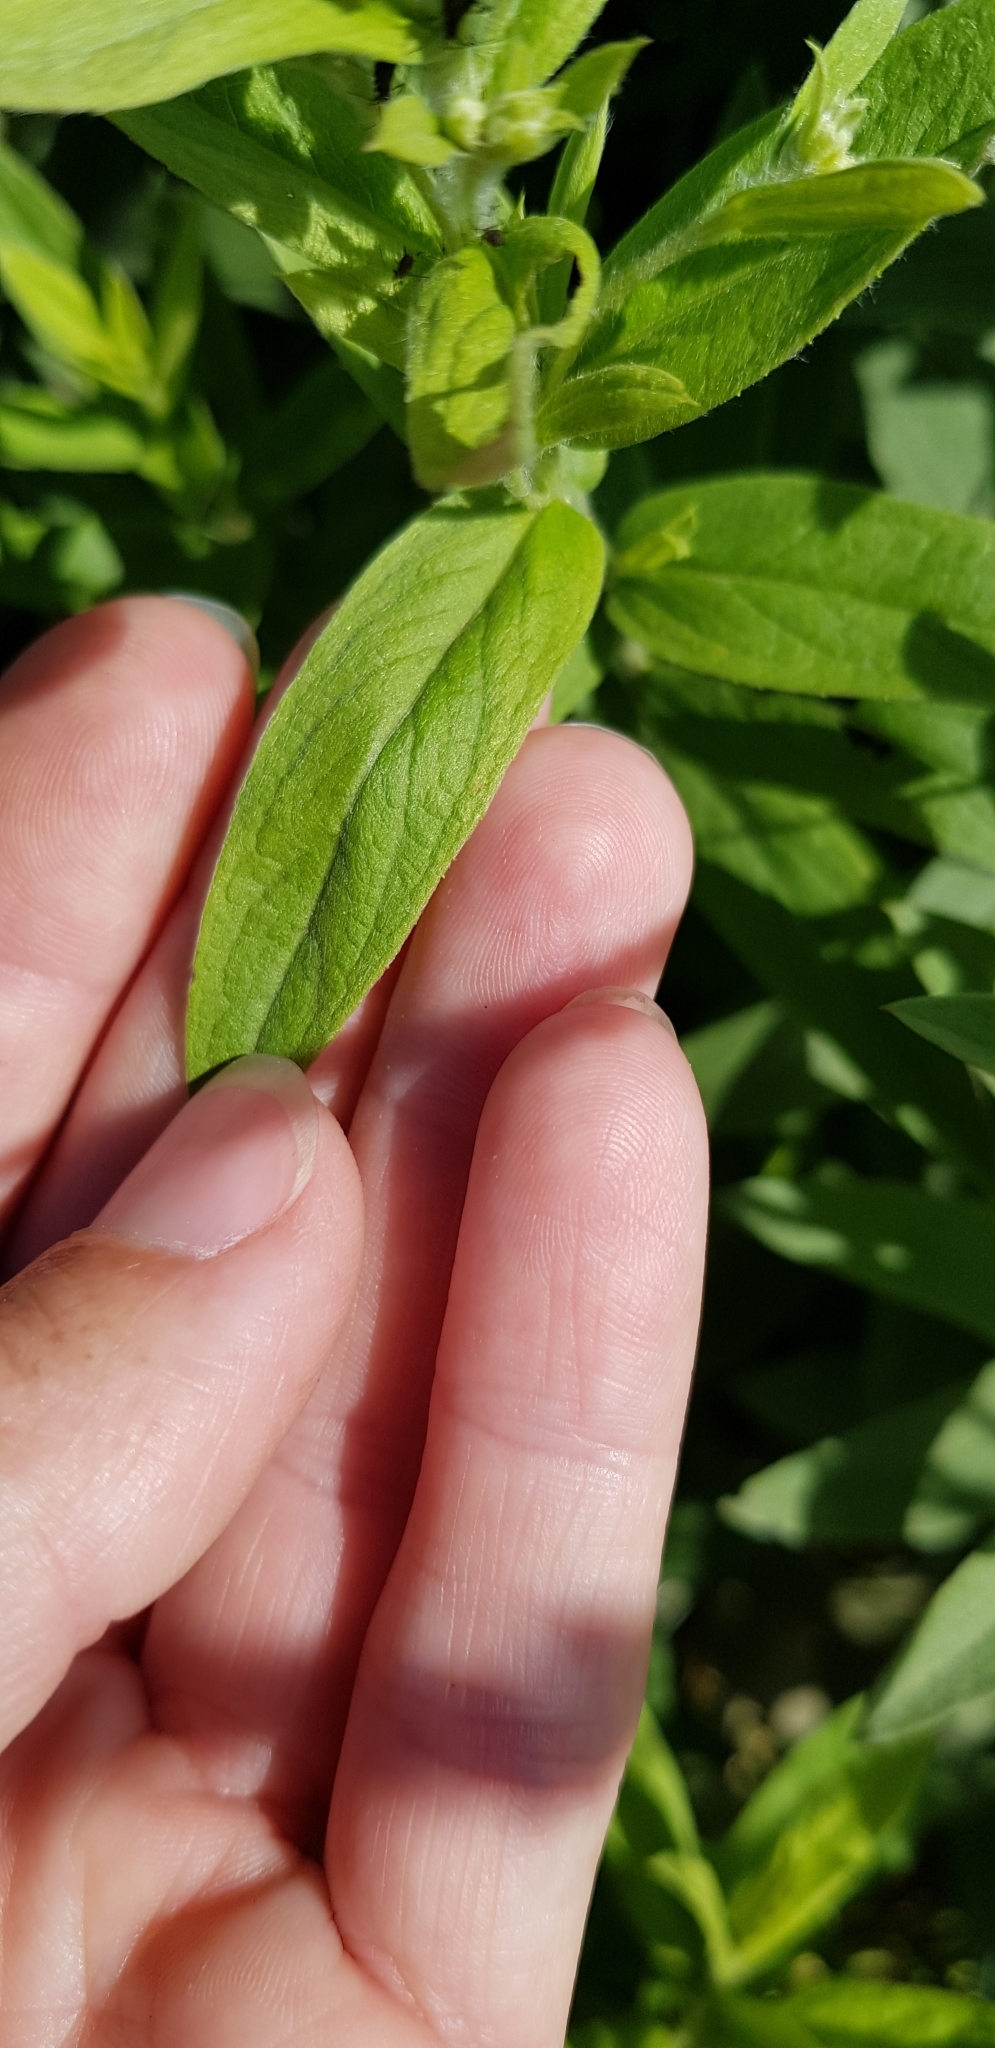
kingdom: Plantae
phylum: Tracheophyta
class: Magnoliopsida
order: Asterales
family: Asteraceae
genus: Pentanema
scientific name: Pentanema germanicum
